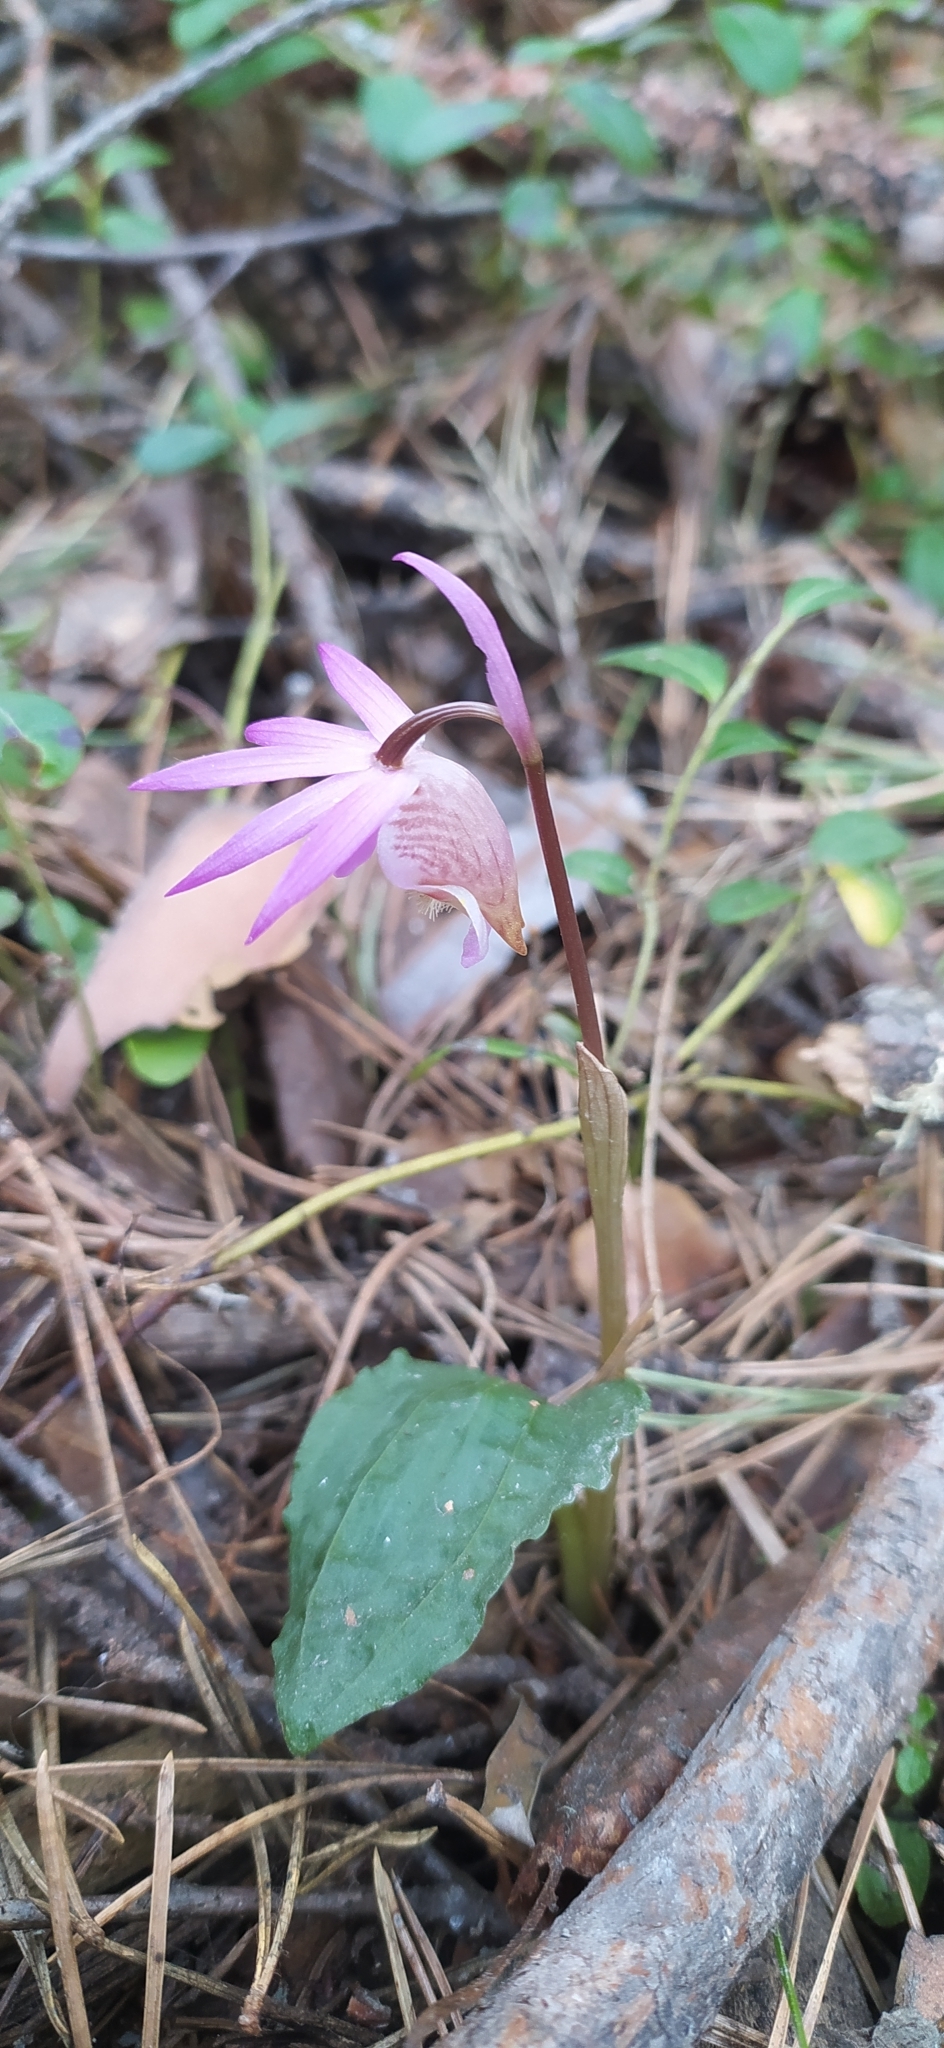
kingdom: Plantae
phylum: Tracheophyta
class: Liliopsida
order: Asparagales
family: Orchidaceae
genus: Calypso
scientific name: Calypso bulbosa
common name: Calypso
